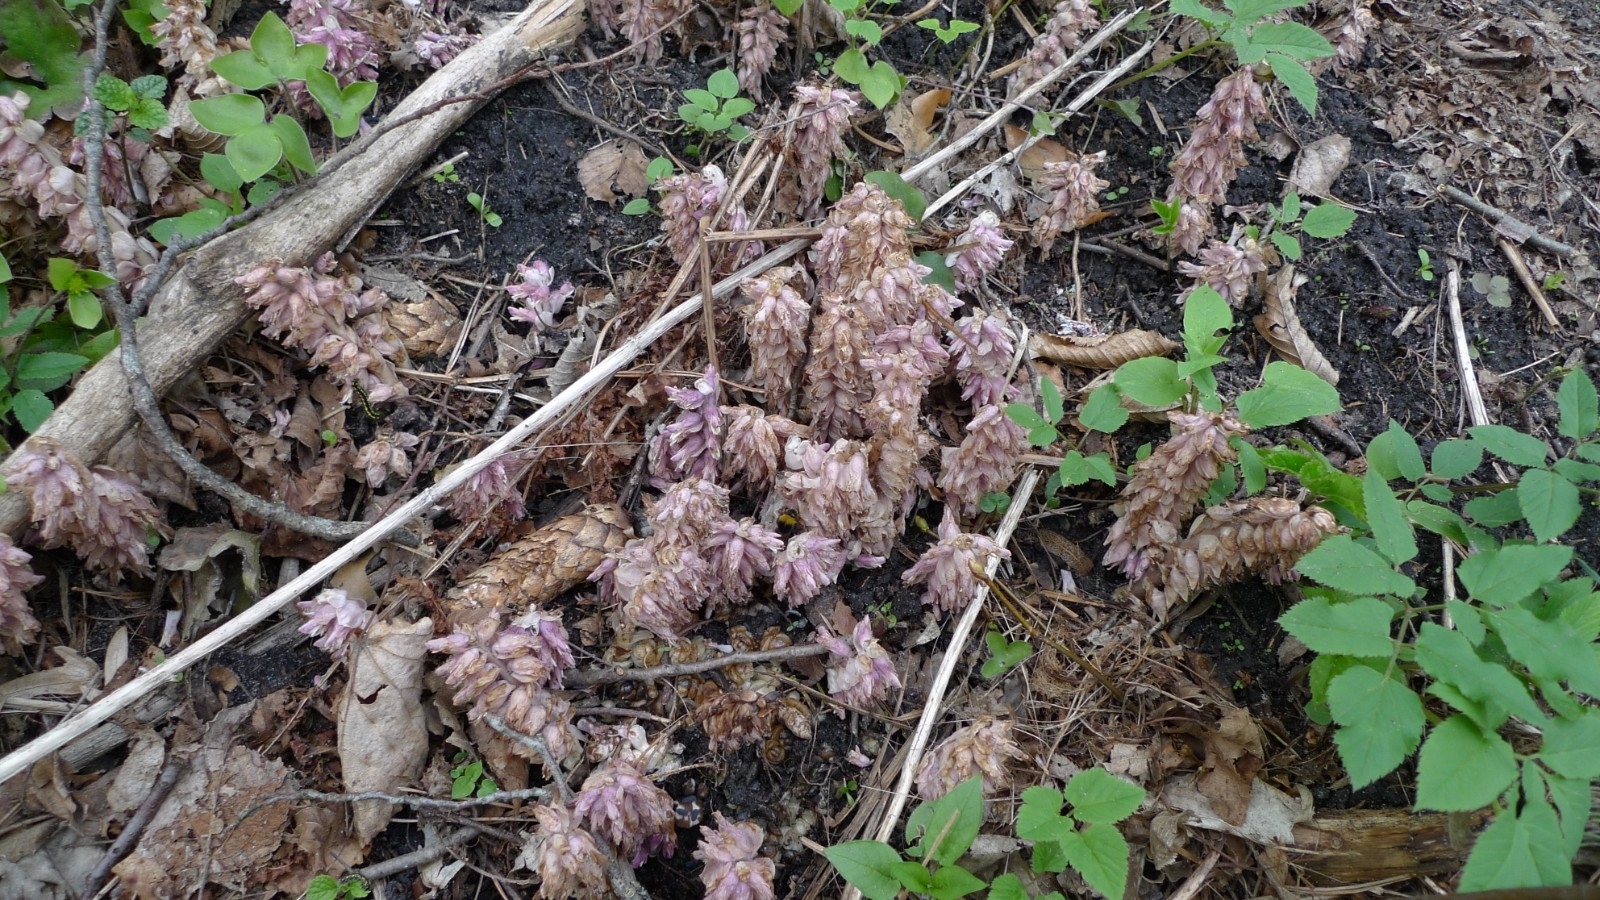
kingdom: Plantae
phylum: Tracheophyta
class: Magnoliopsida
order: Lamiales
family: Orobanchaceae
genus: Lathraea
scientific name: Lathraea squamaria
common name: Toothwort
